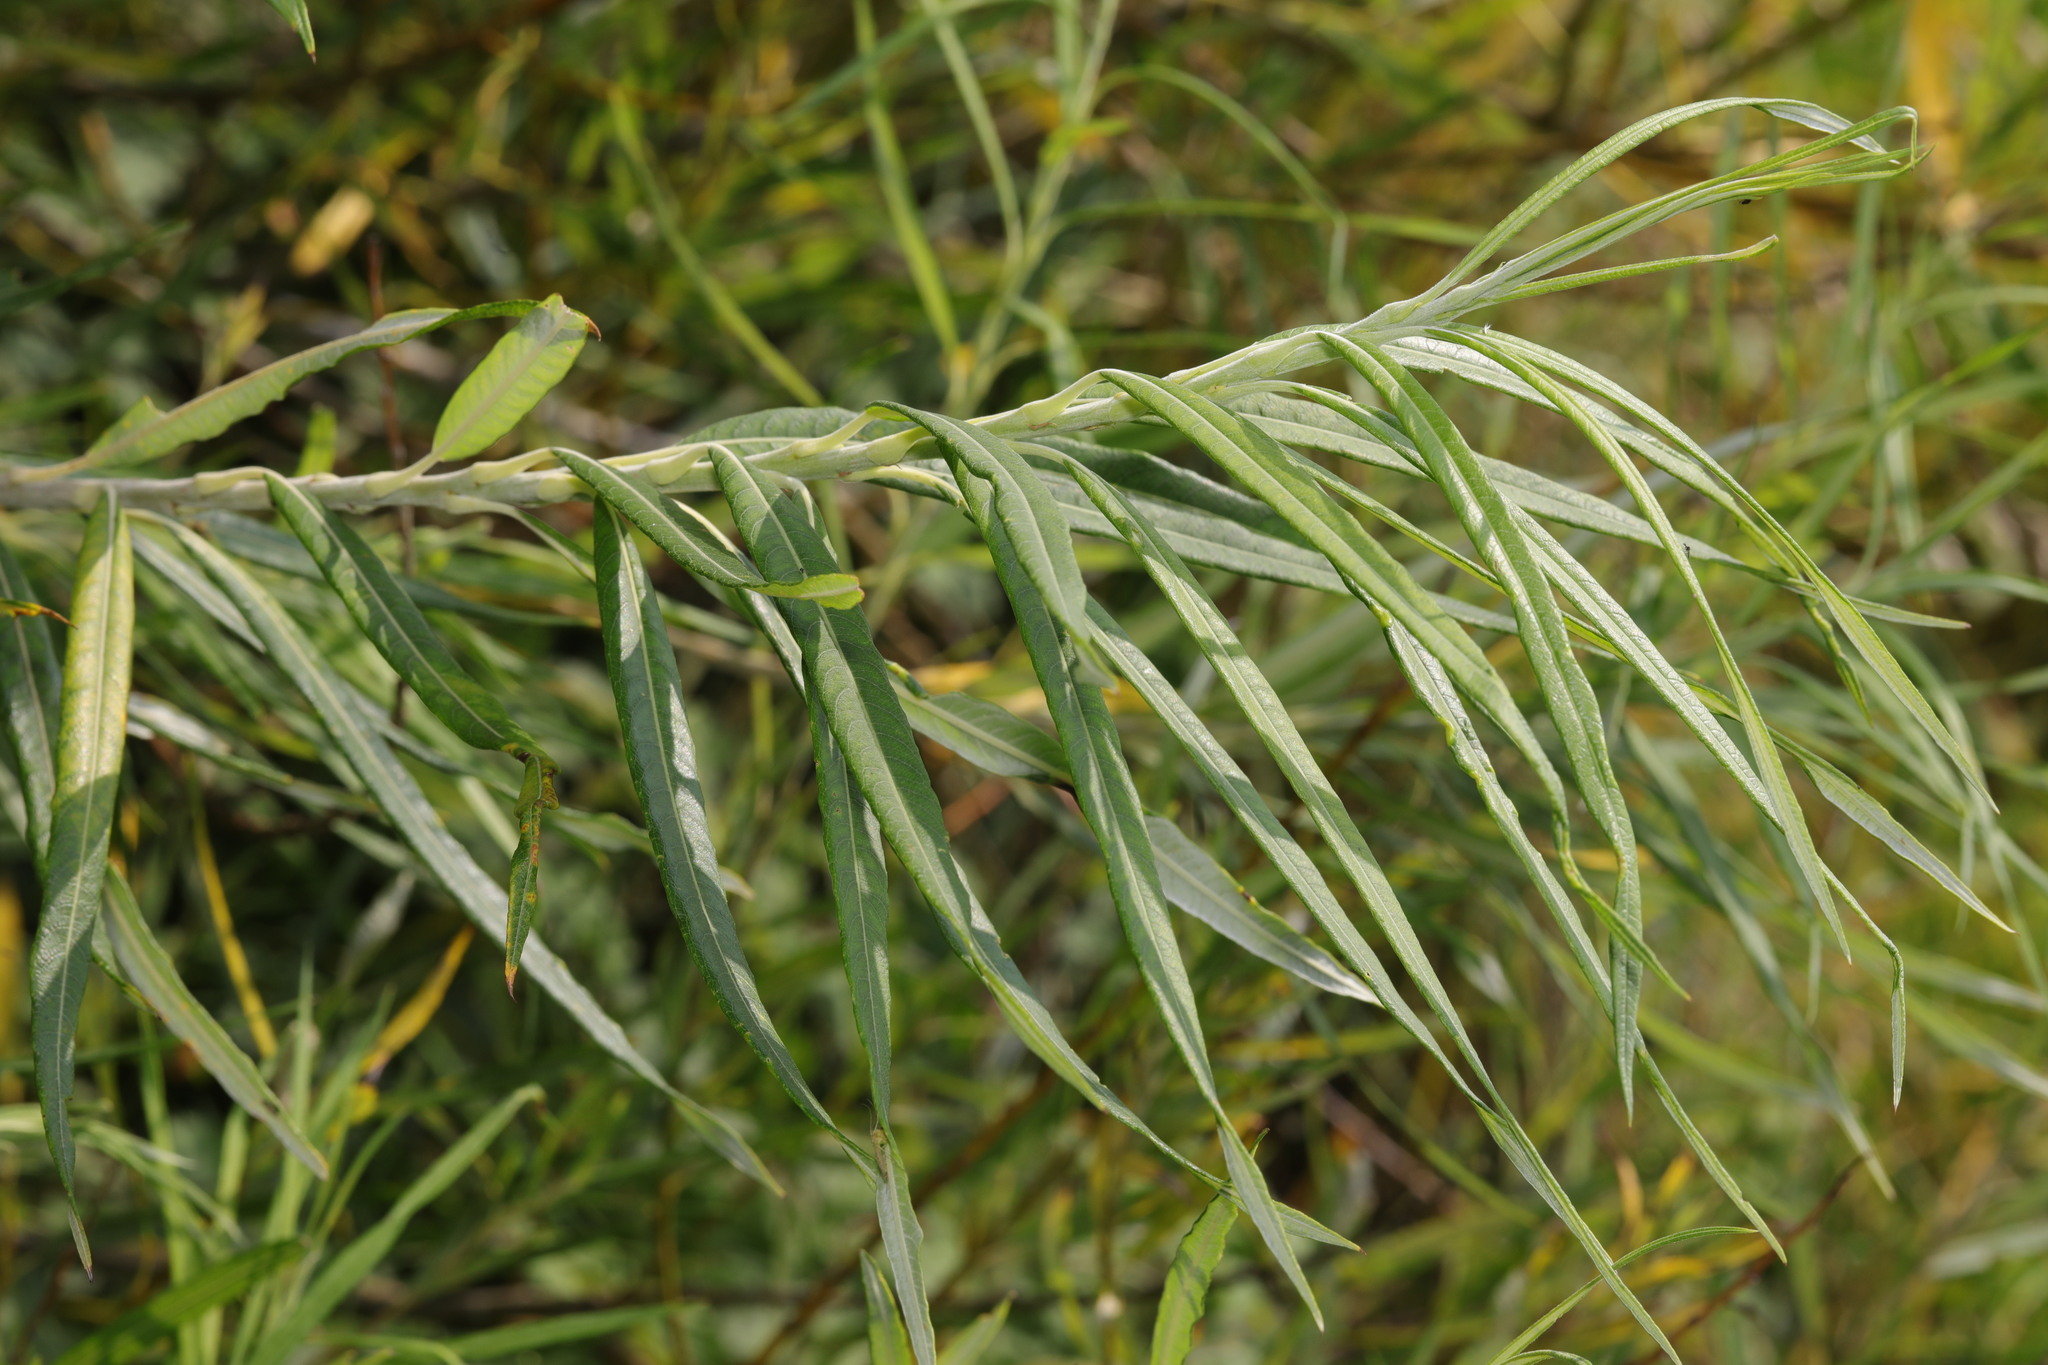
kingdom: Plantae
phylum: Tracheophyta
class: Magnoliopsida
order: Malpighiales
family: Salicaceae
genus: Salix
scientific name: Salix viminalis
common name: Osier
